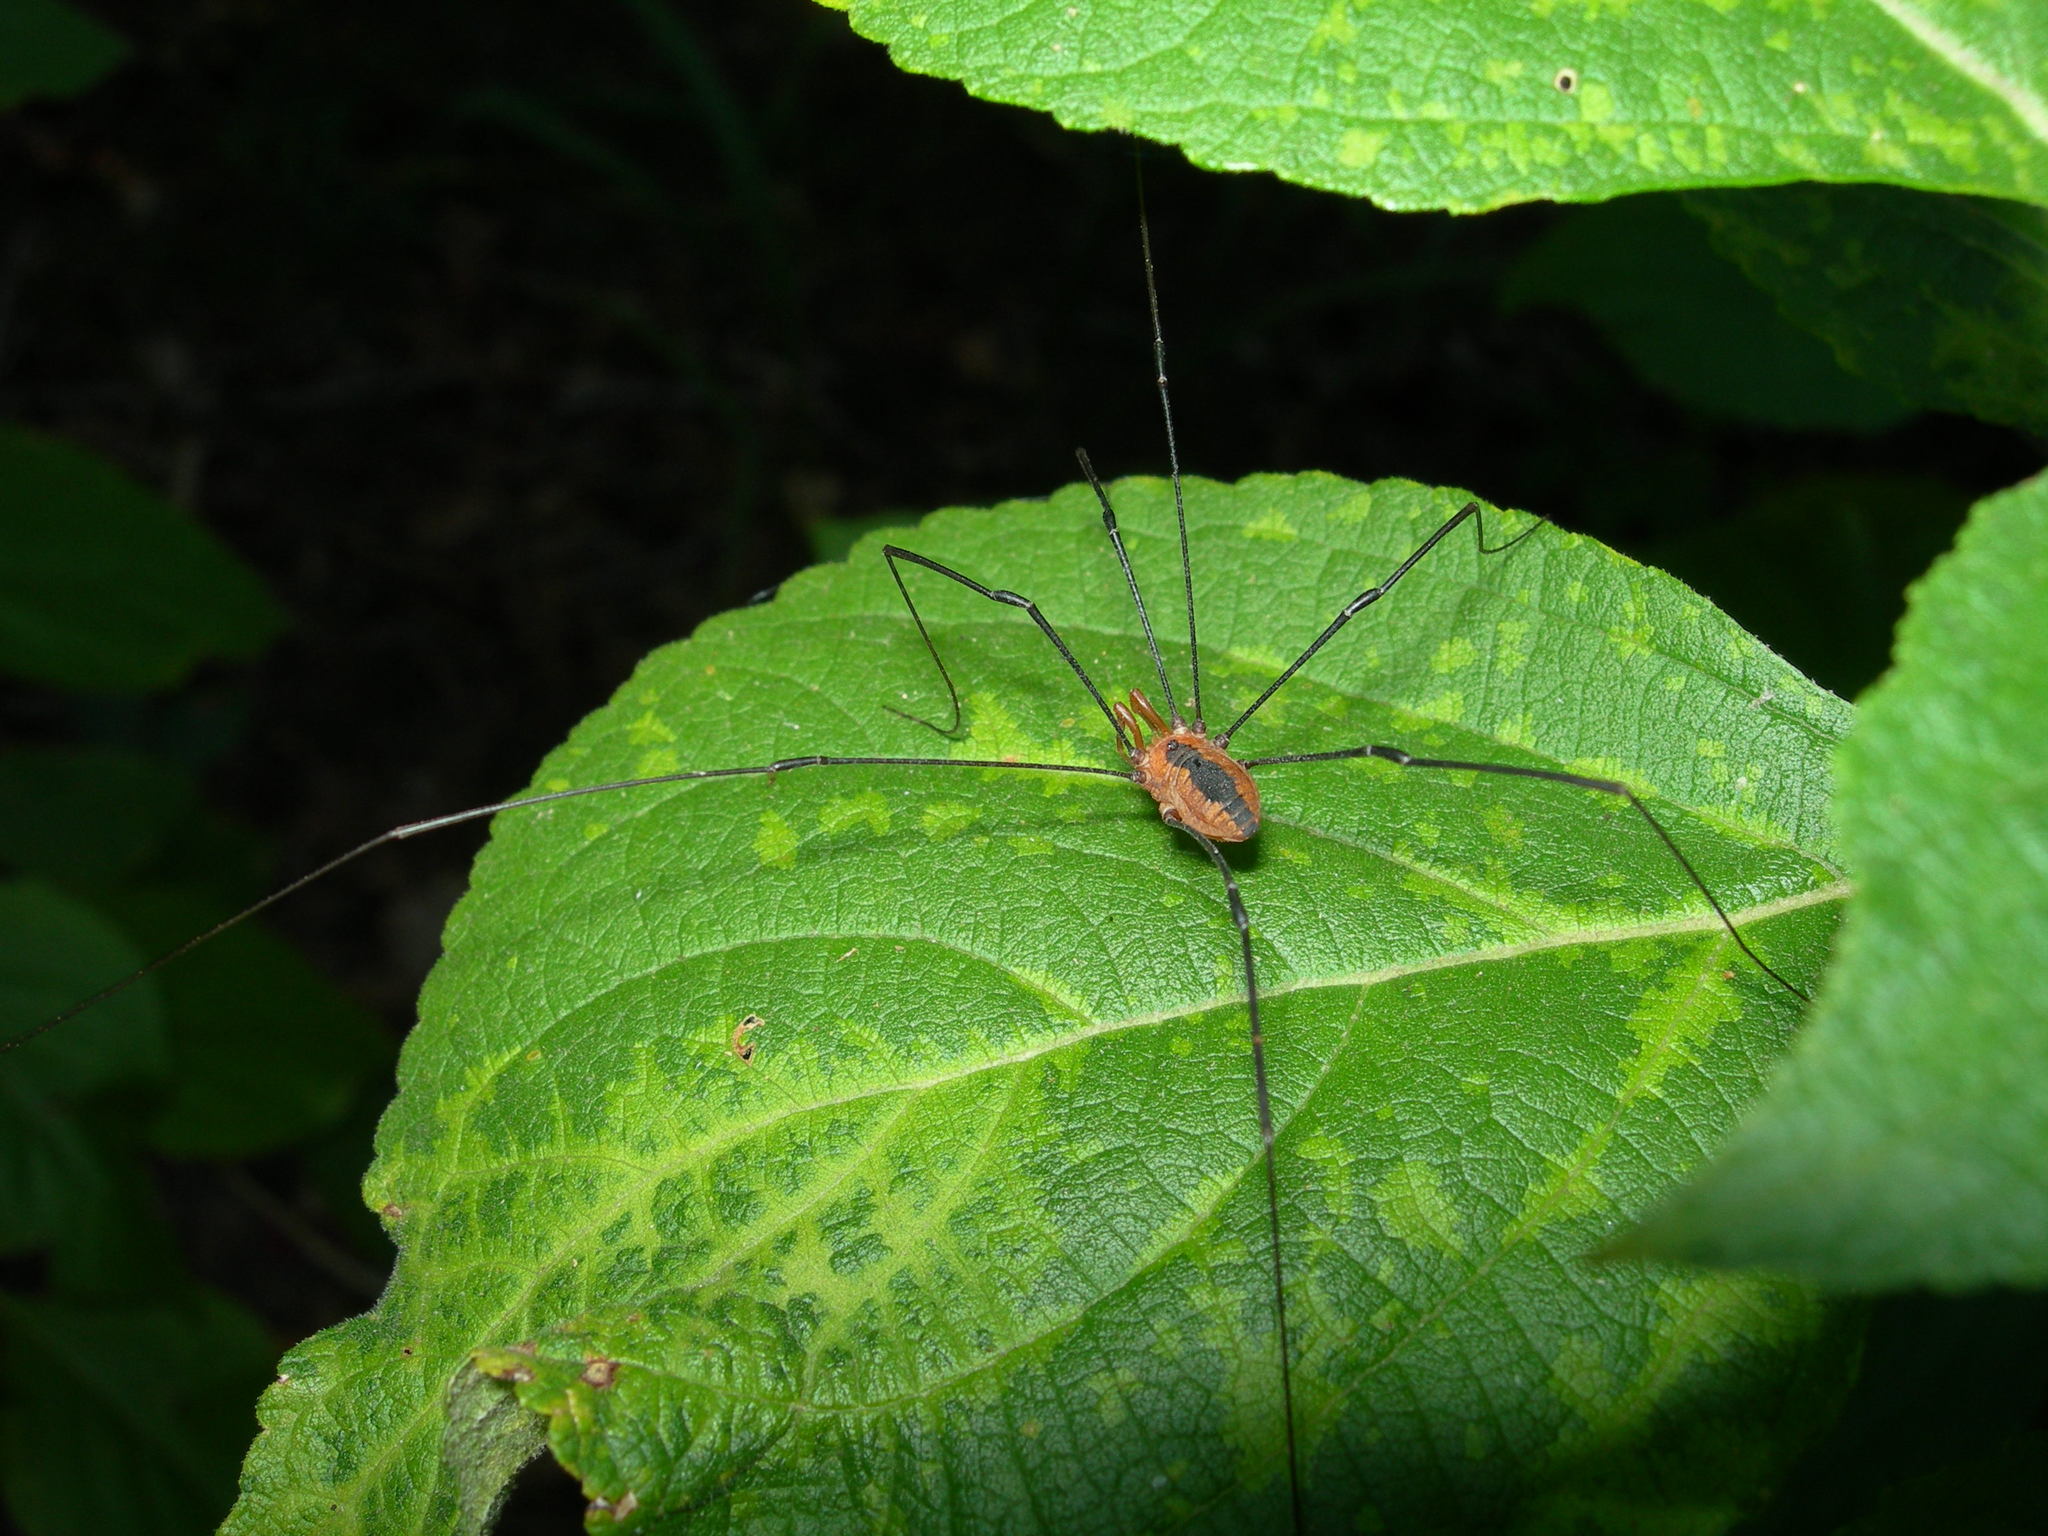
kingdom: Animalia
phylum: Arthropoda
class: Arachnida
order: Opiliones
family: Sclerosomatidae
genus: Leiobunum
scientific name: Leiobunum vittatum
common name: Eastern harvestman
